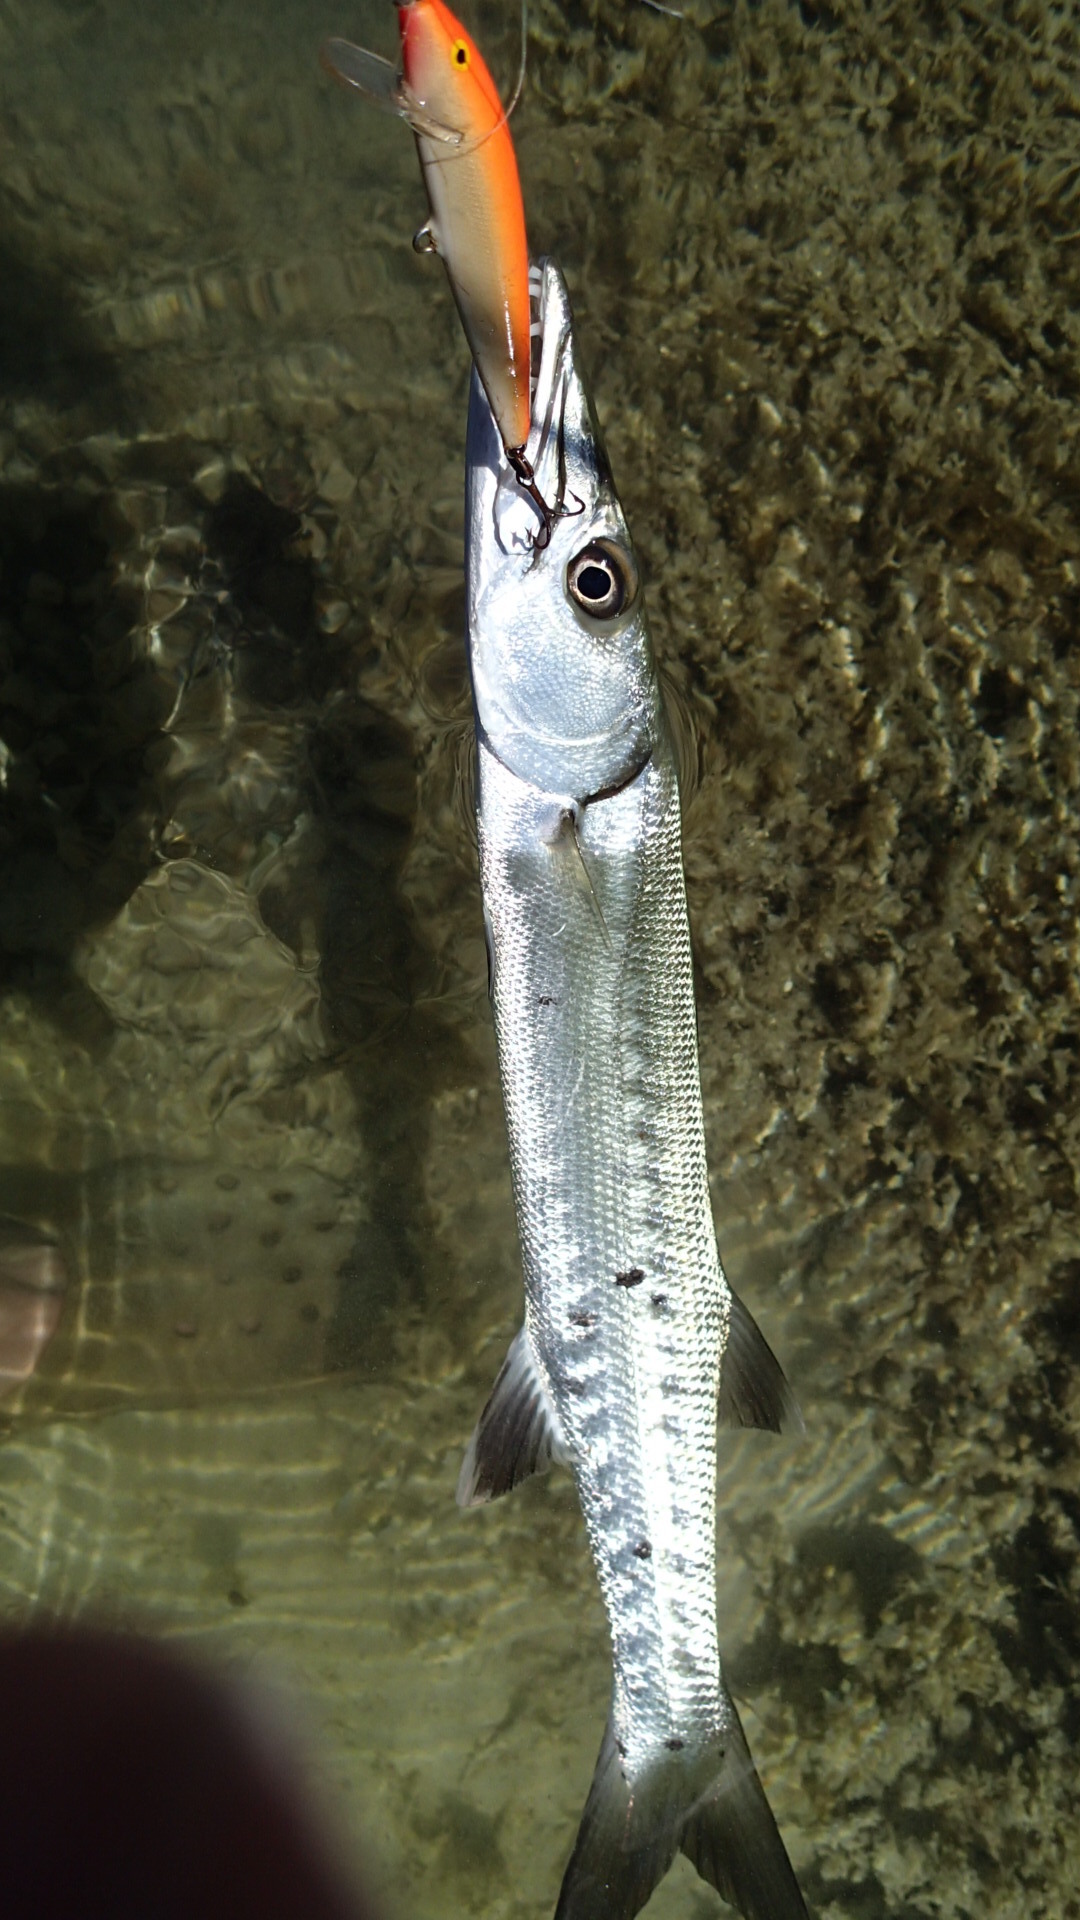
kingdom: Animalia
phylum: Chordata
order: Perciformes
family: Sphyraenidae
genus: Sphyraena
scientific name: Sphyraena barracuda
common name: Great barracuda
